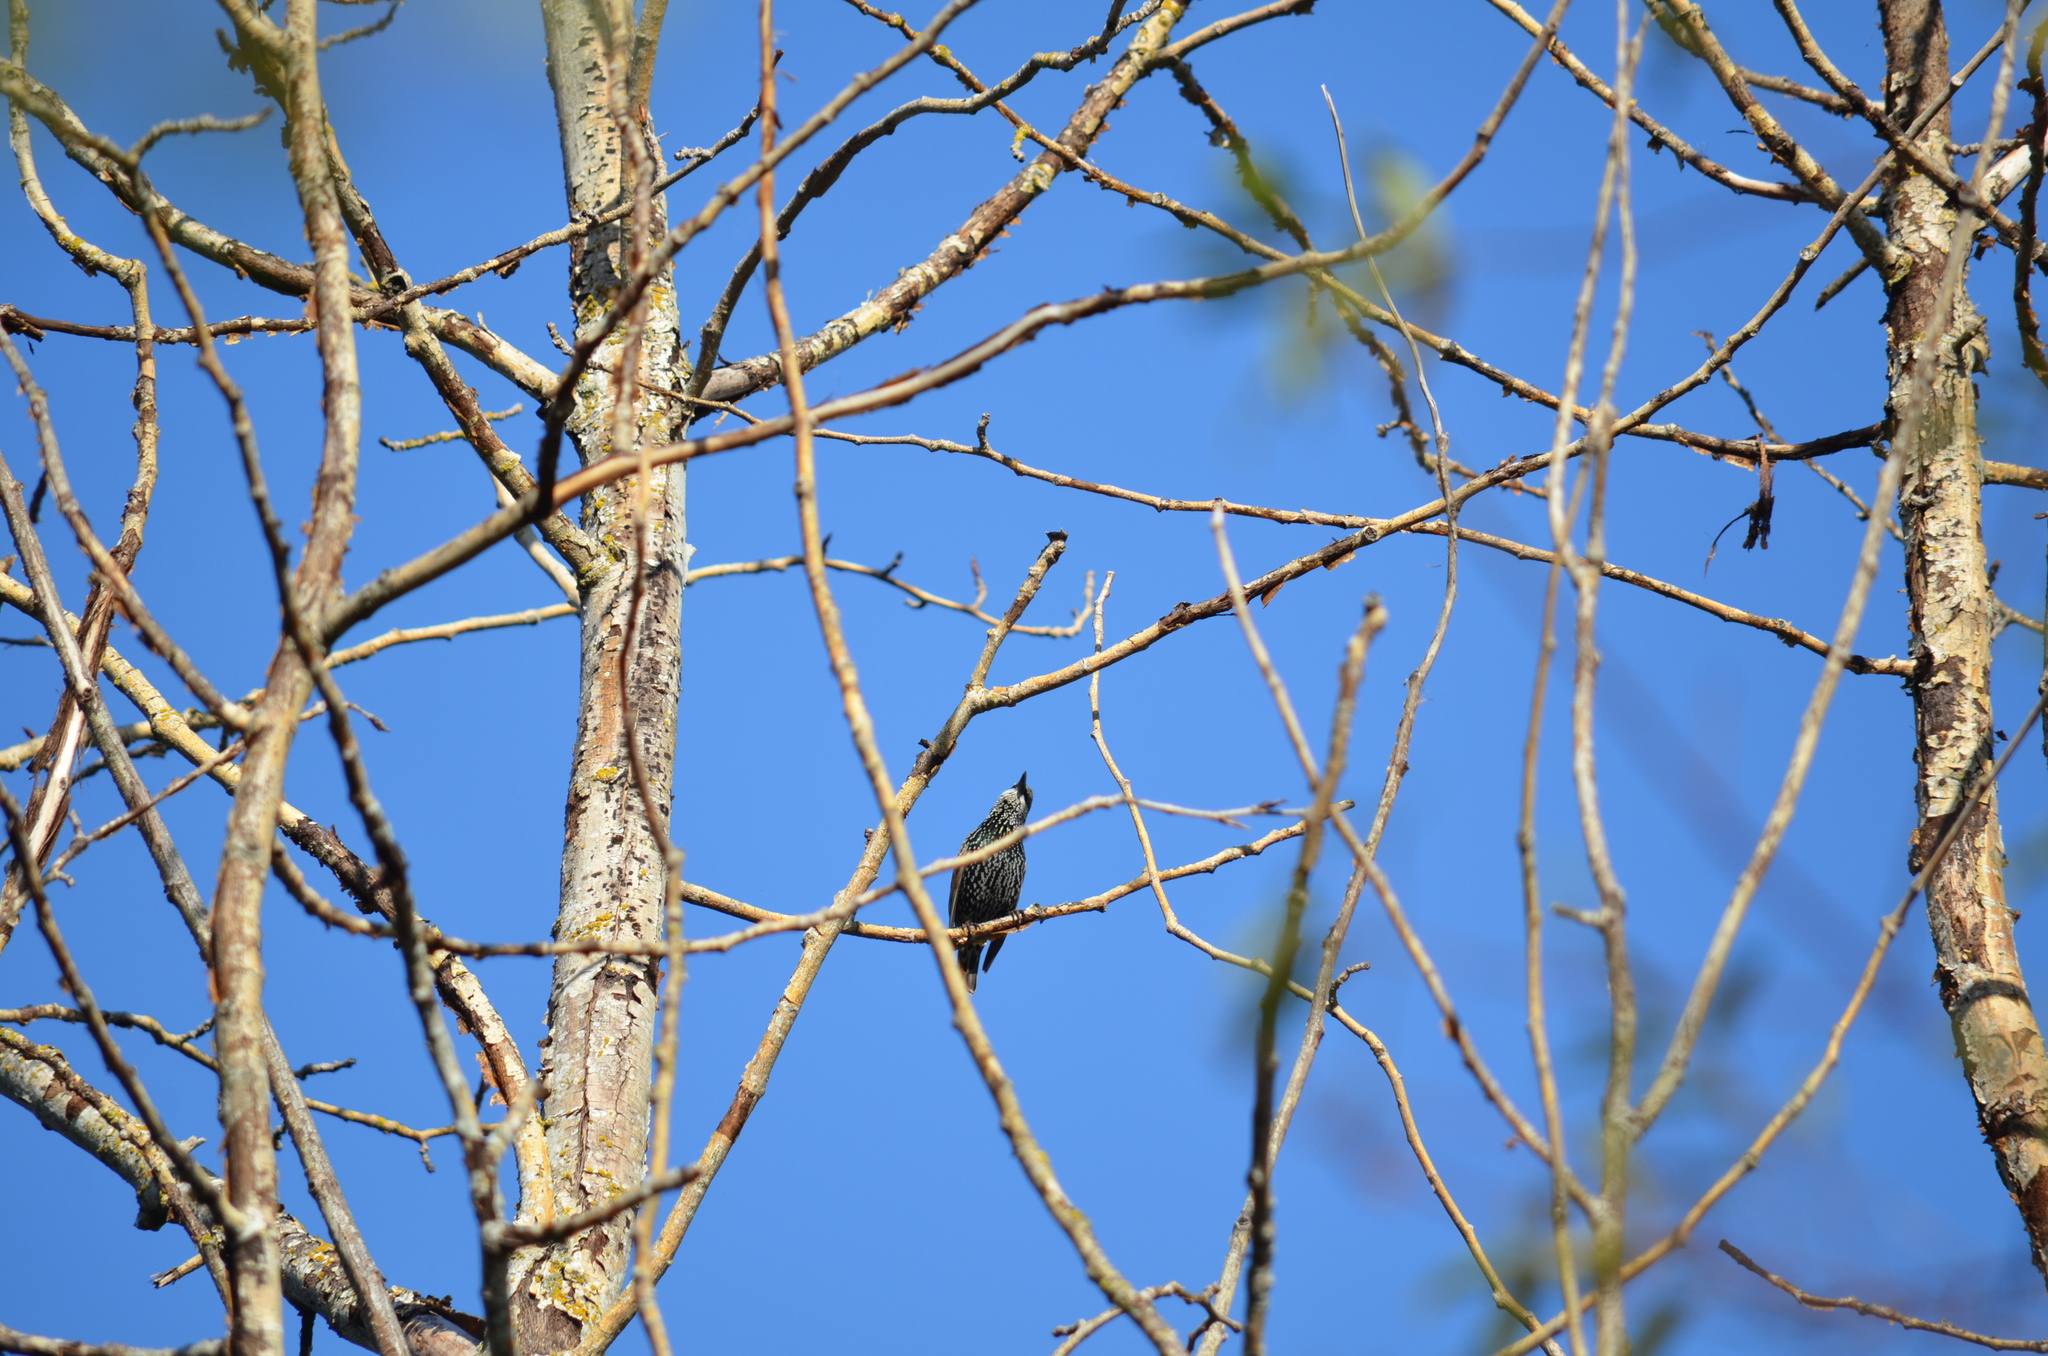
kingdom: Animalia
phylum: Chordata
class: Aves
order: Passeriformes
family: Sturnidae
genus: Sturnus
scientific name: Sturnus vulgaris
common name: Common starling
